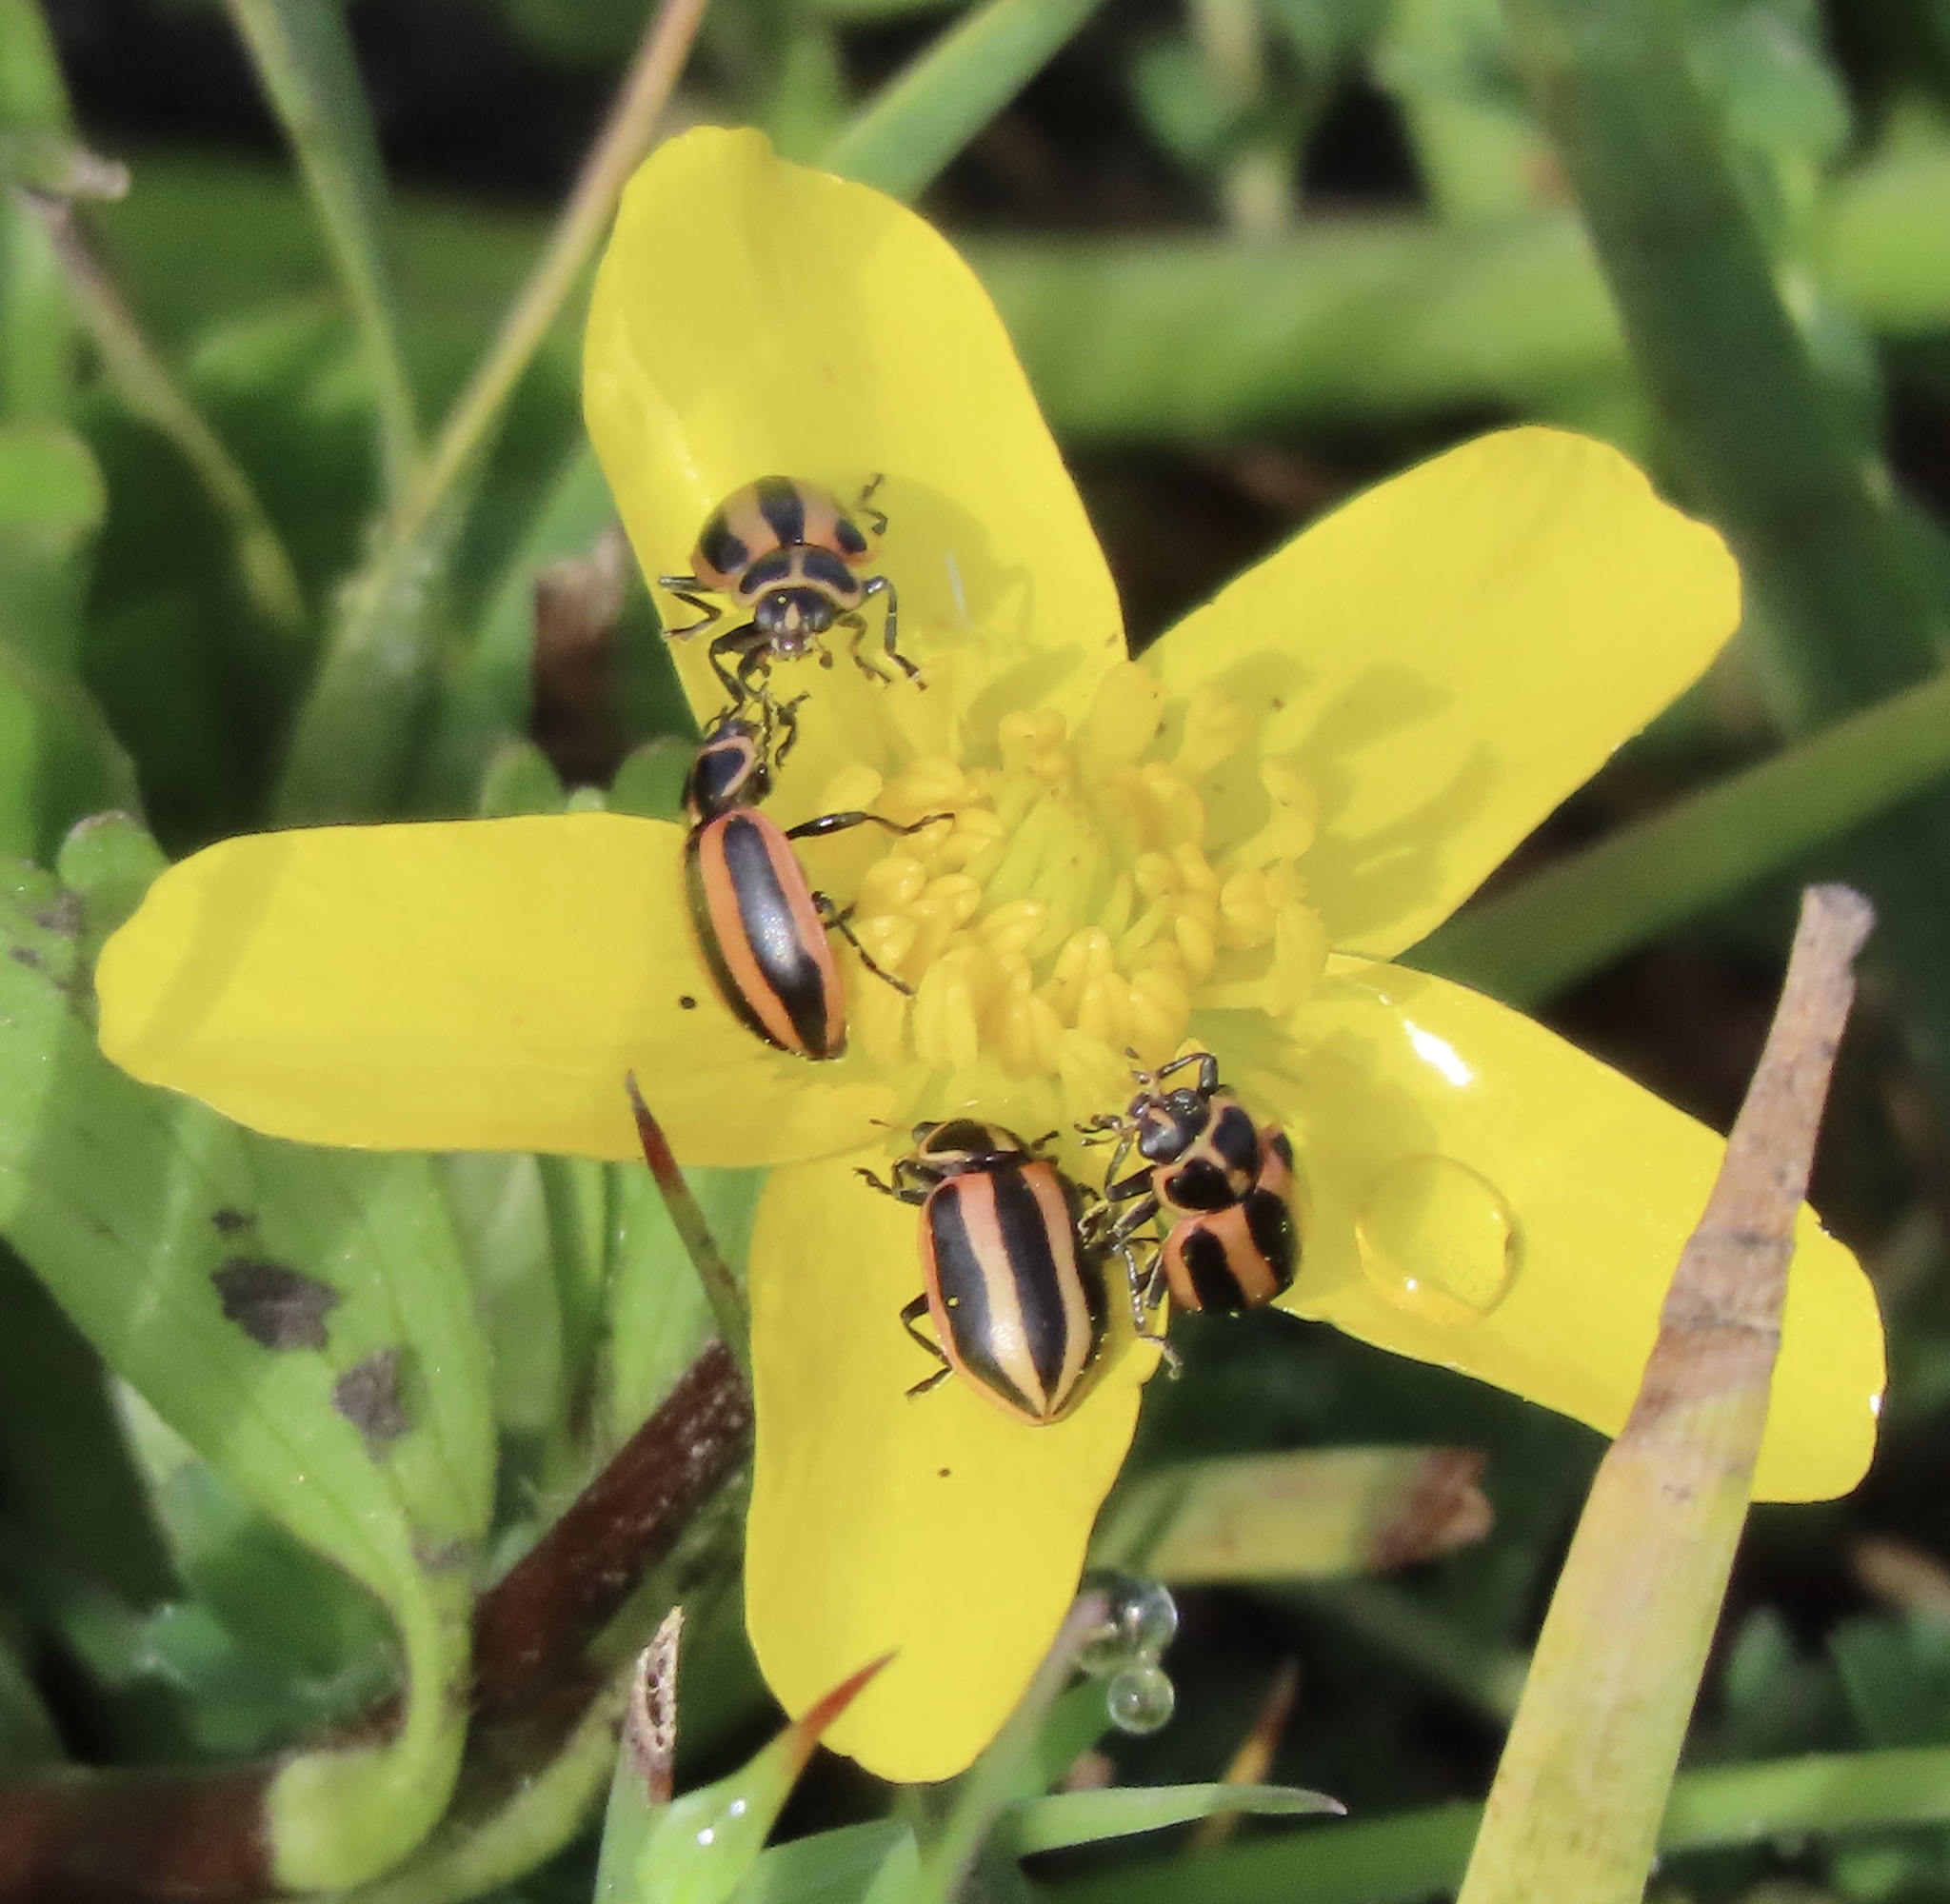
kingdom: Animalia
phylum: Arthropoda
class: Insecta
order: Coleoptera
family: Coccinellidae
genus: Paranaemia
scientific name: Paranaemia vittigera
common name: Ladybird beetle
